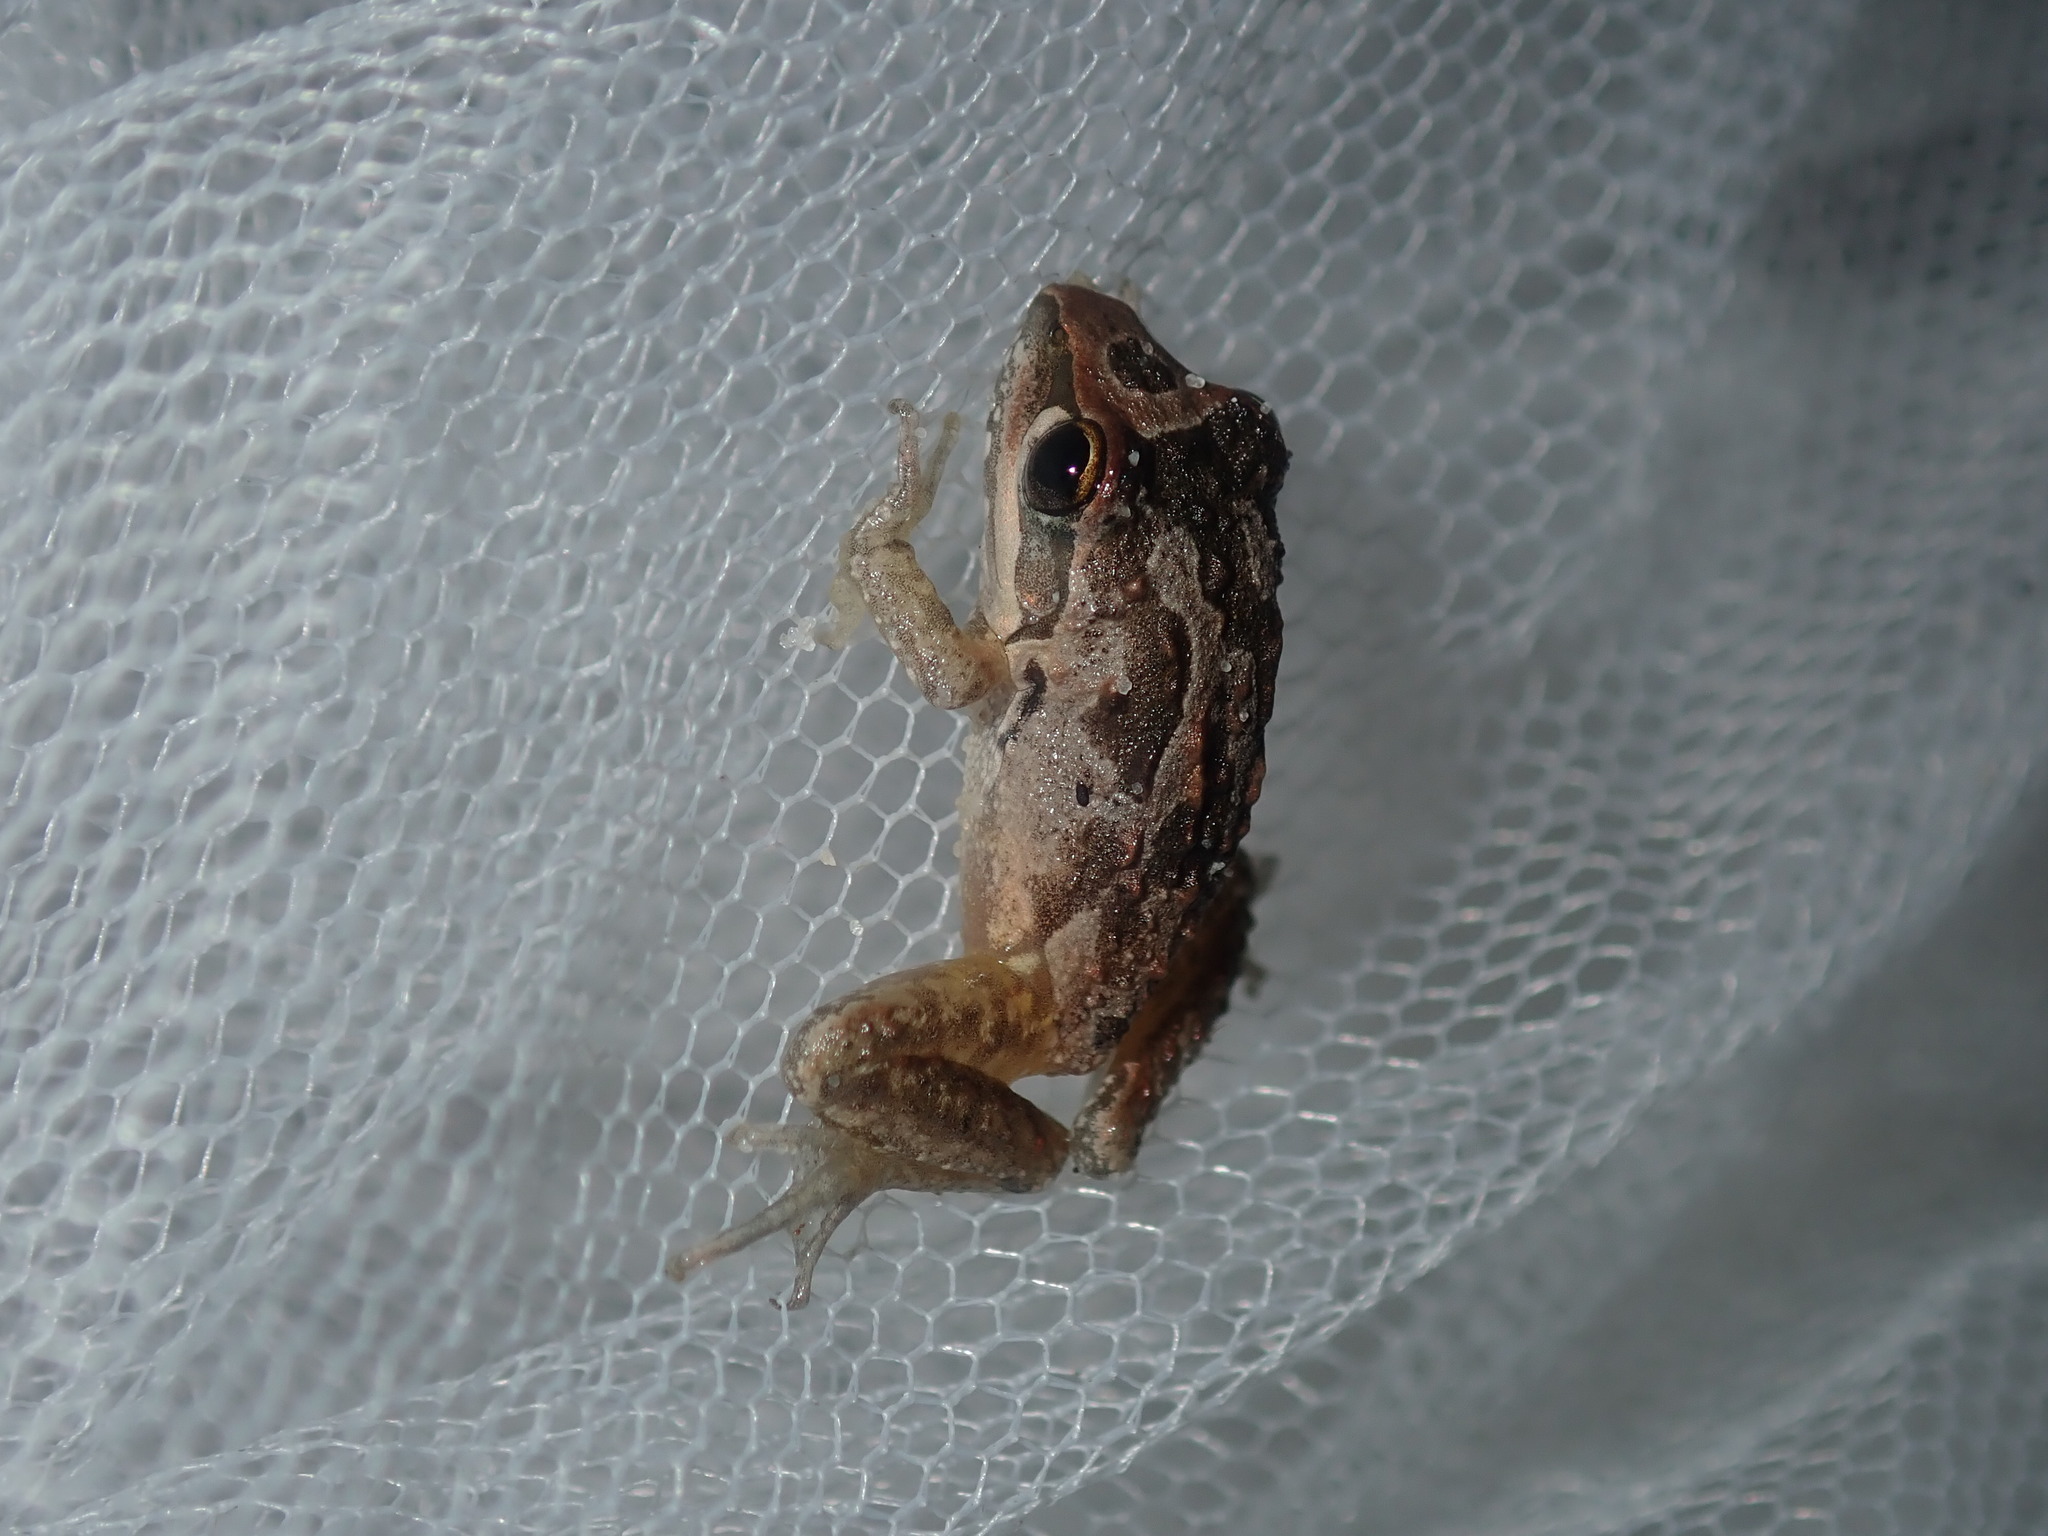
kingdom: Animalia
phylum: Chordata
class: Amphibia
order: Anura
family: Pelodryadidae
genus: Litoria
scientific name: Litoria freycineti
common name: Freycinet’s frog
